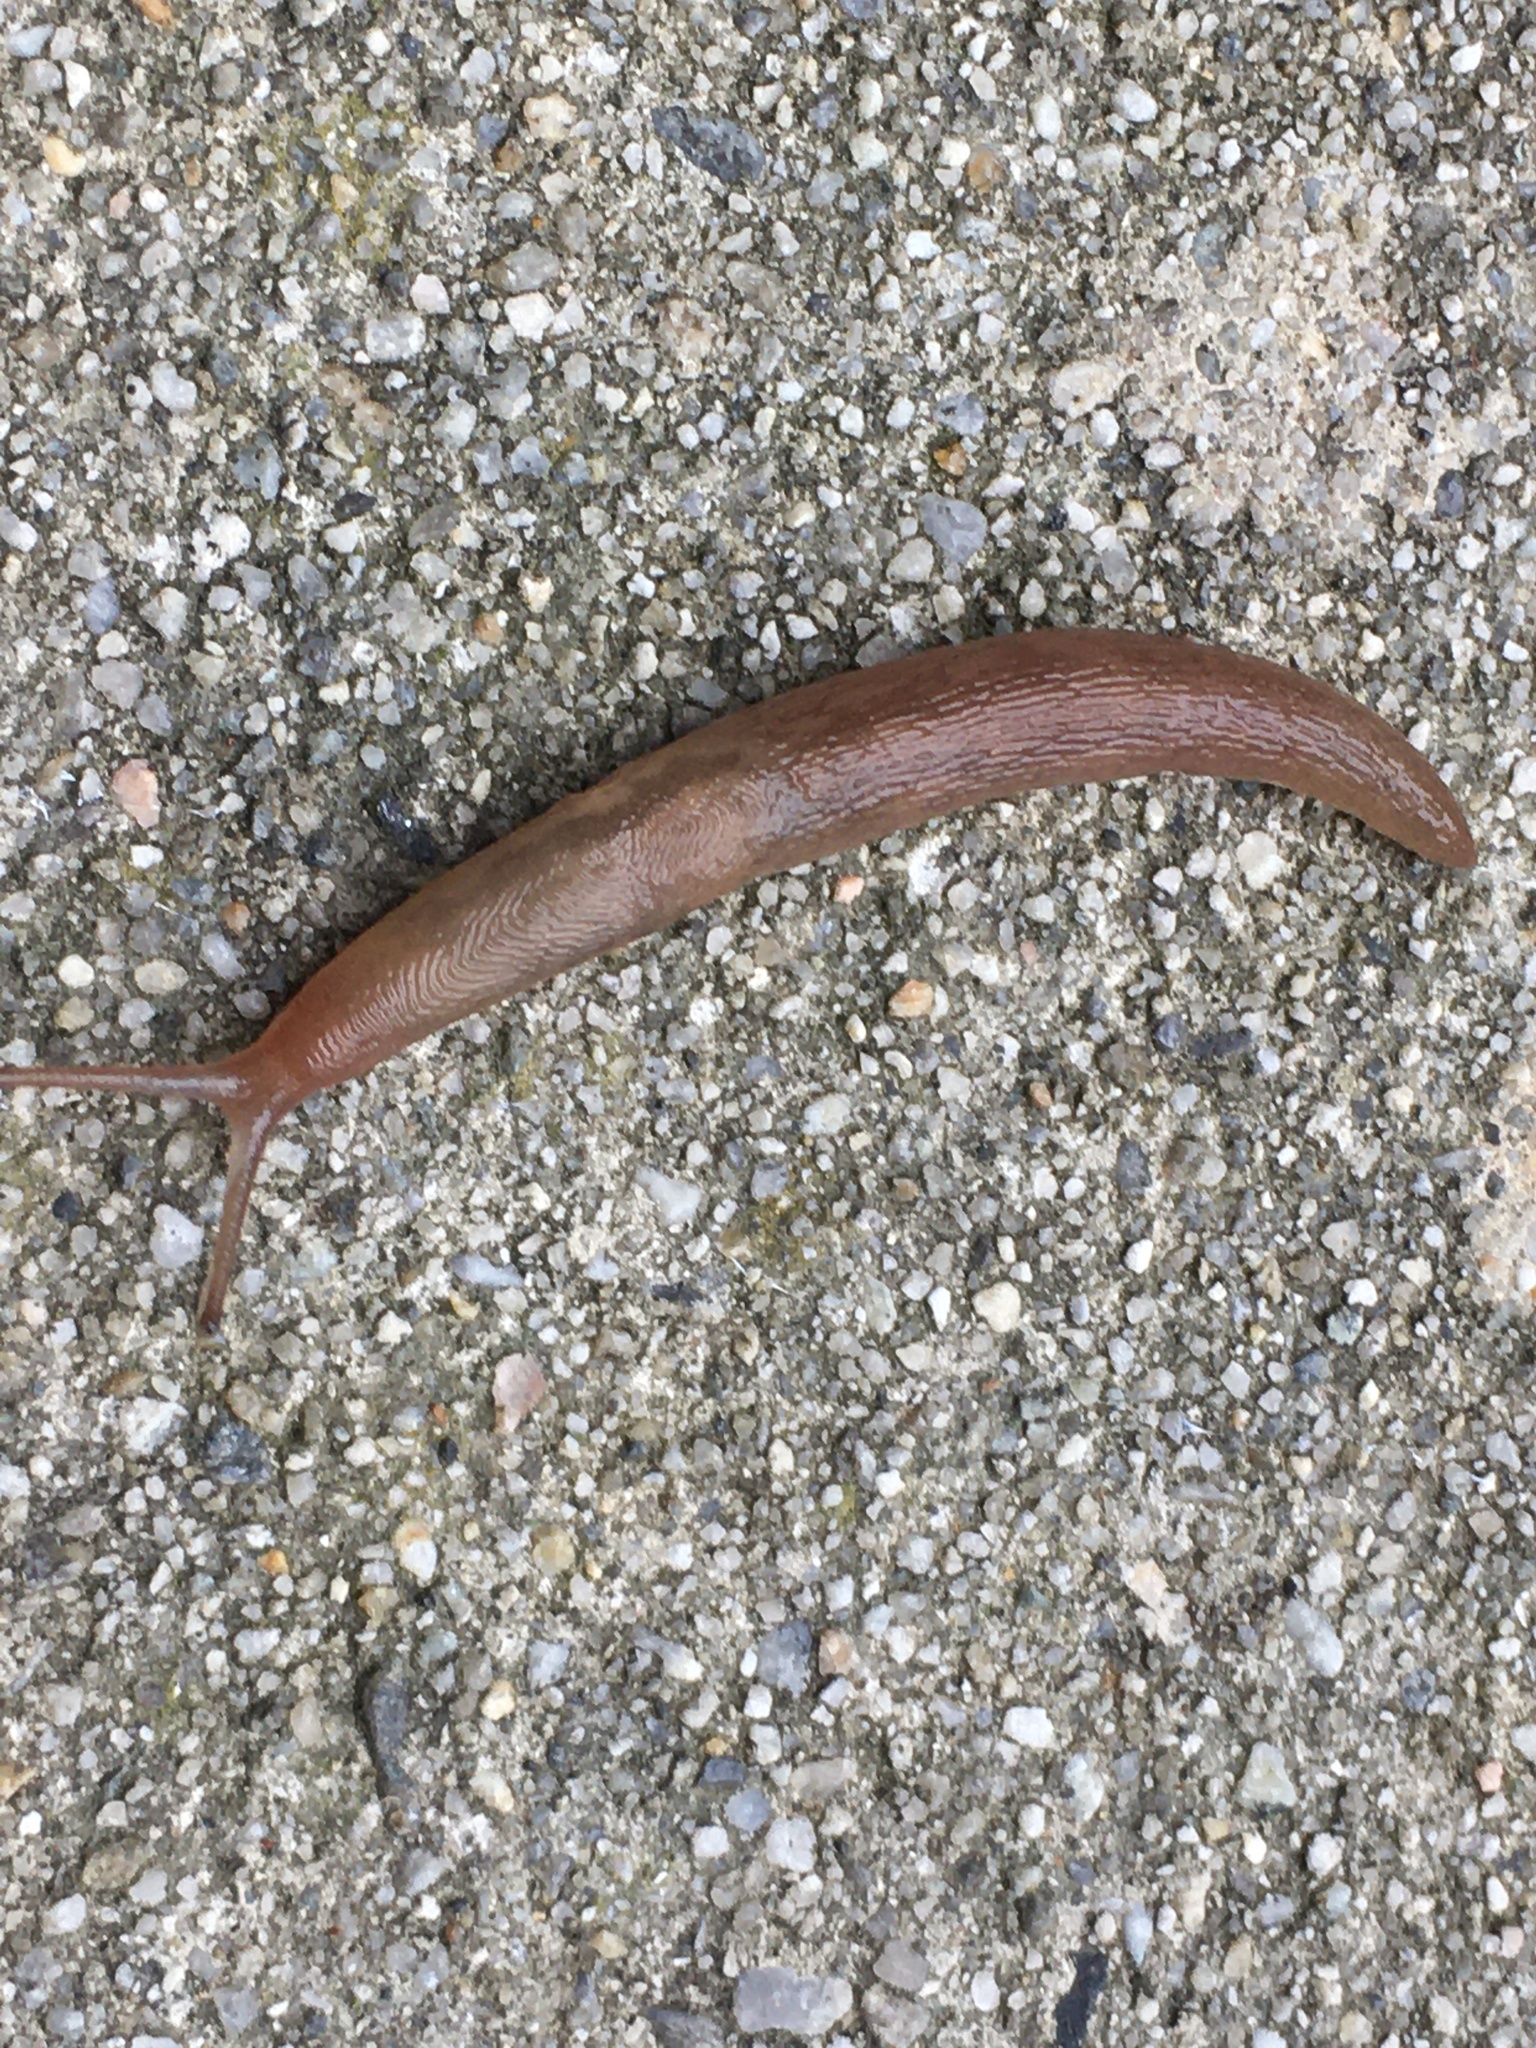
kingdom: Animalia
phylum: Mollusca
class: Gastropoda
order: Stylommatophora
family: Limacidae
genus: Ambigolimax
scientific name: Ambigolimax
